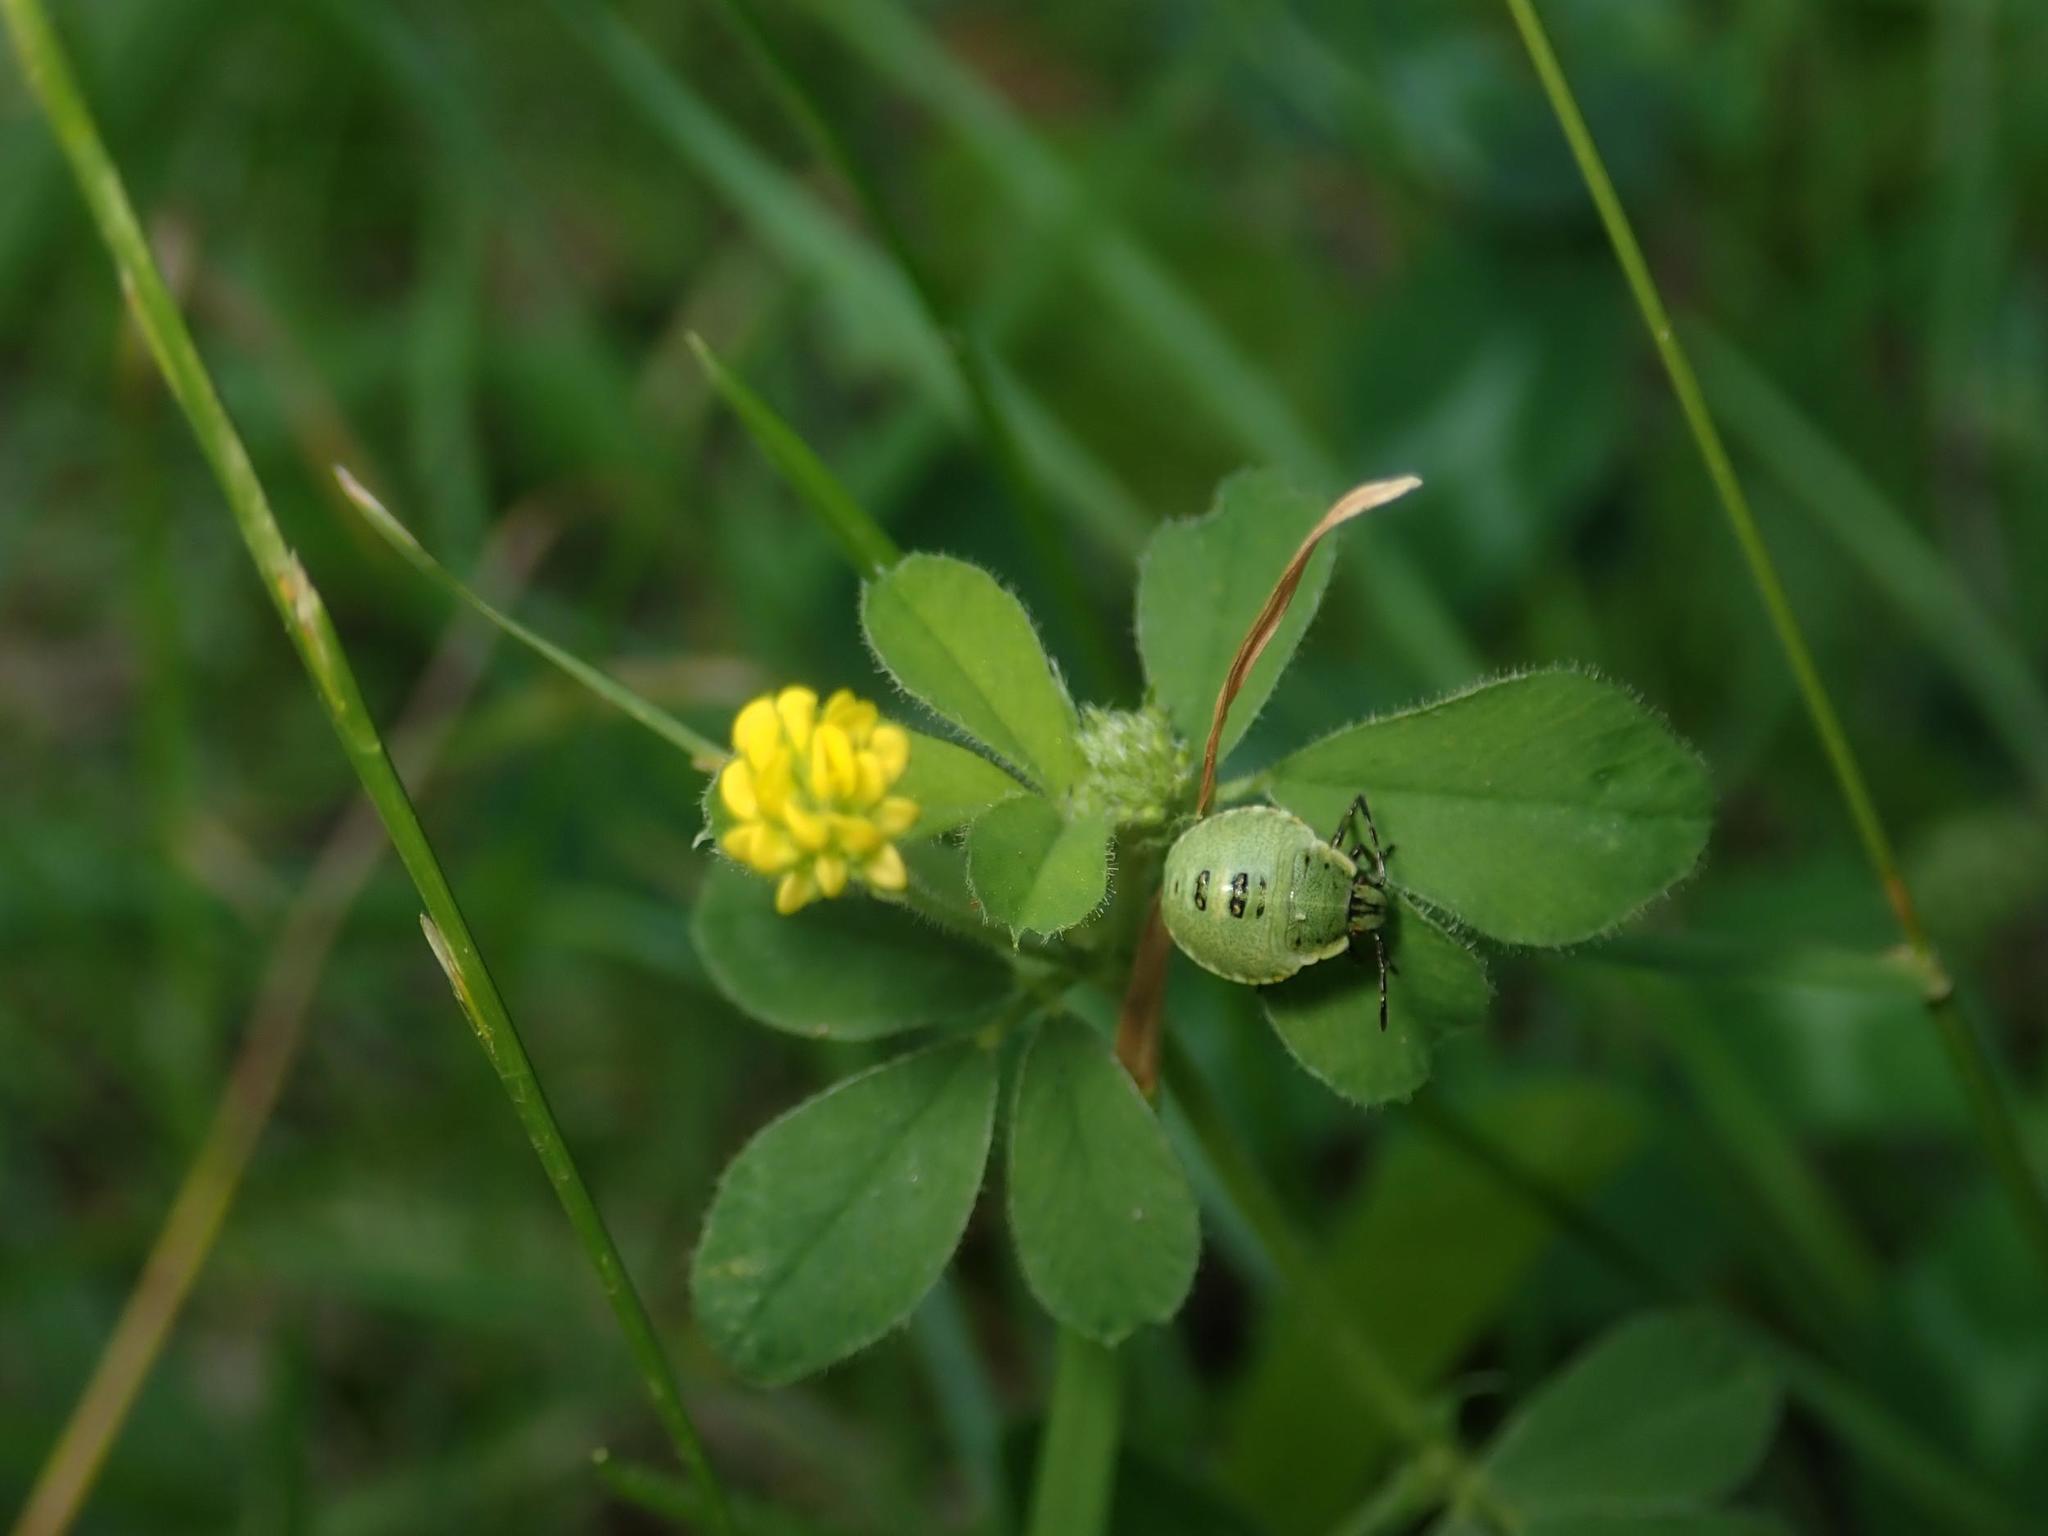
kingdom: Plantae
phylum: Tracheophyta
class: Magnoliopsida
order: Fabales
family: Fabaceae
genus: Medicago
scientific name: Medicago lupulina
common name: Black medick
